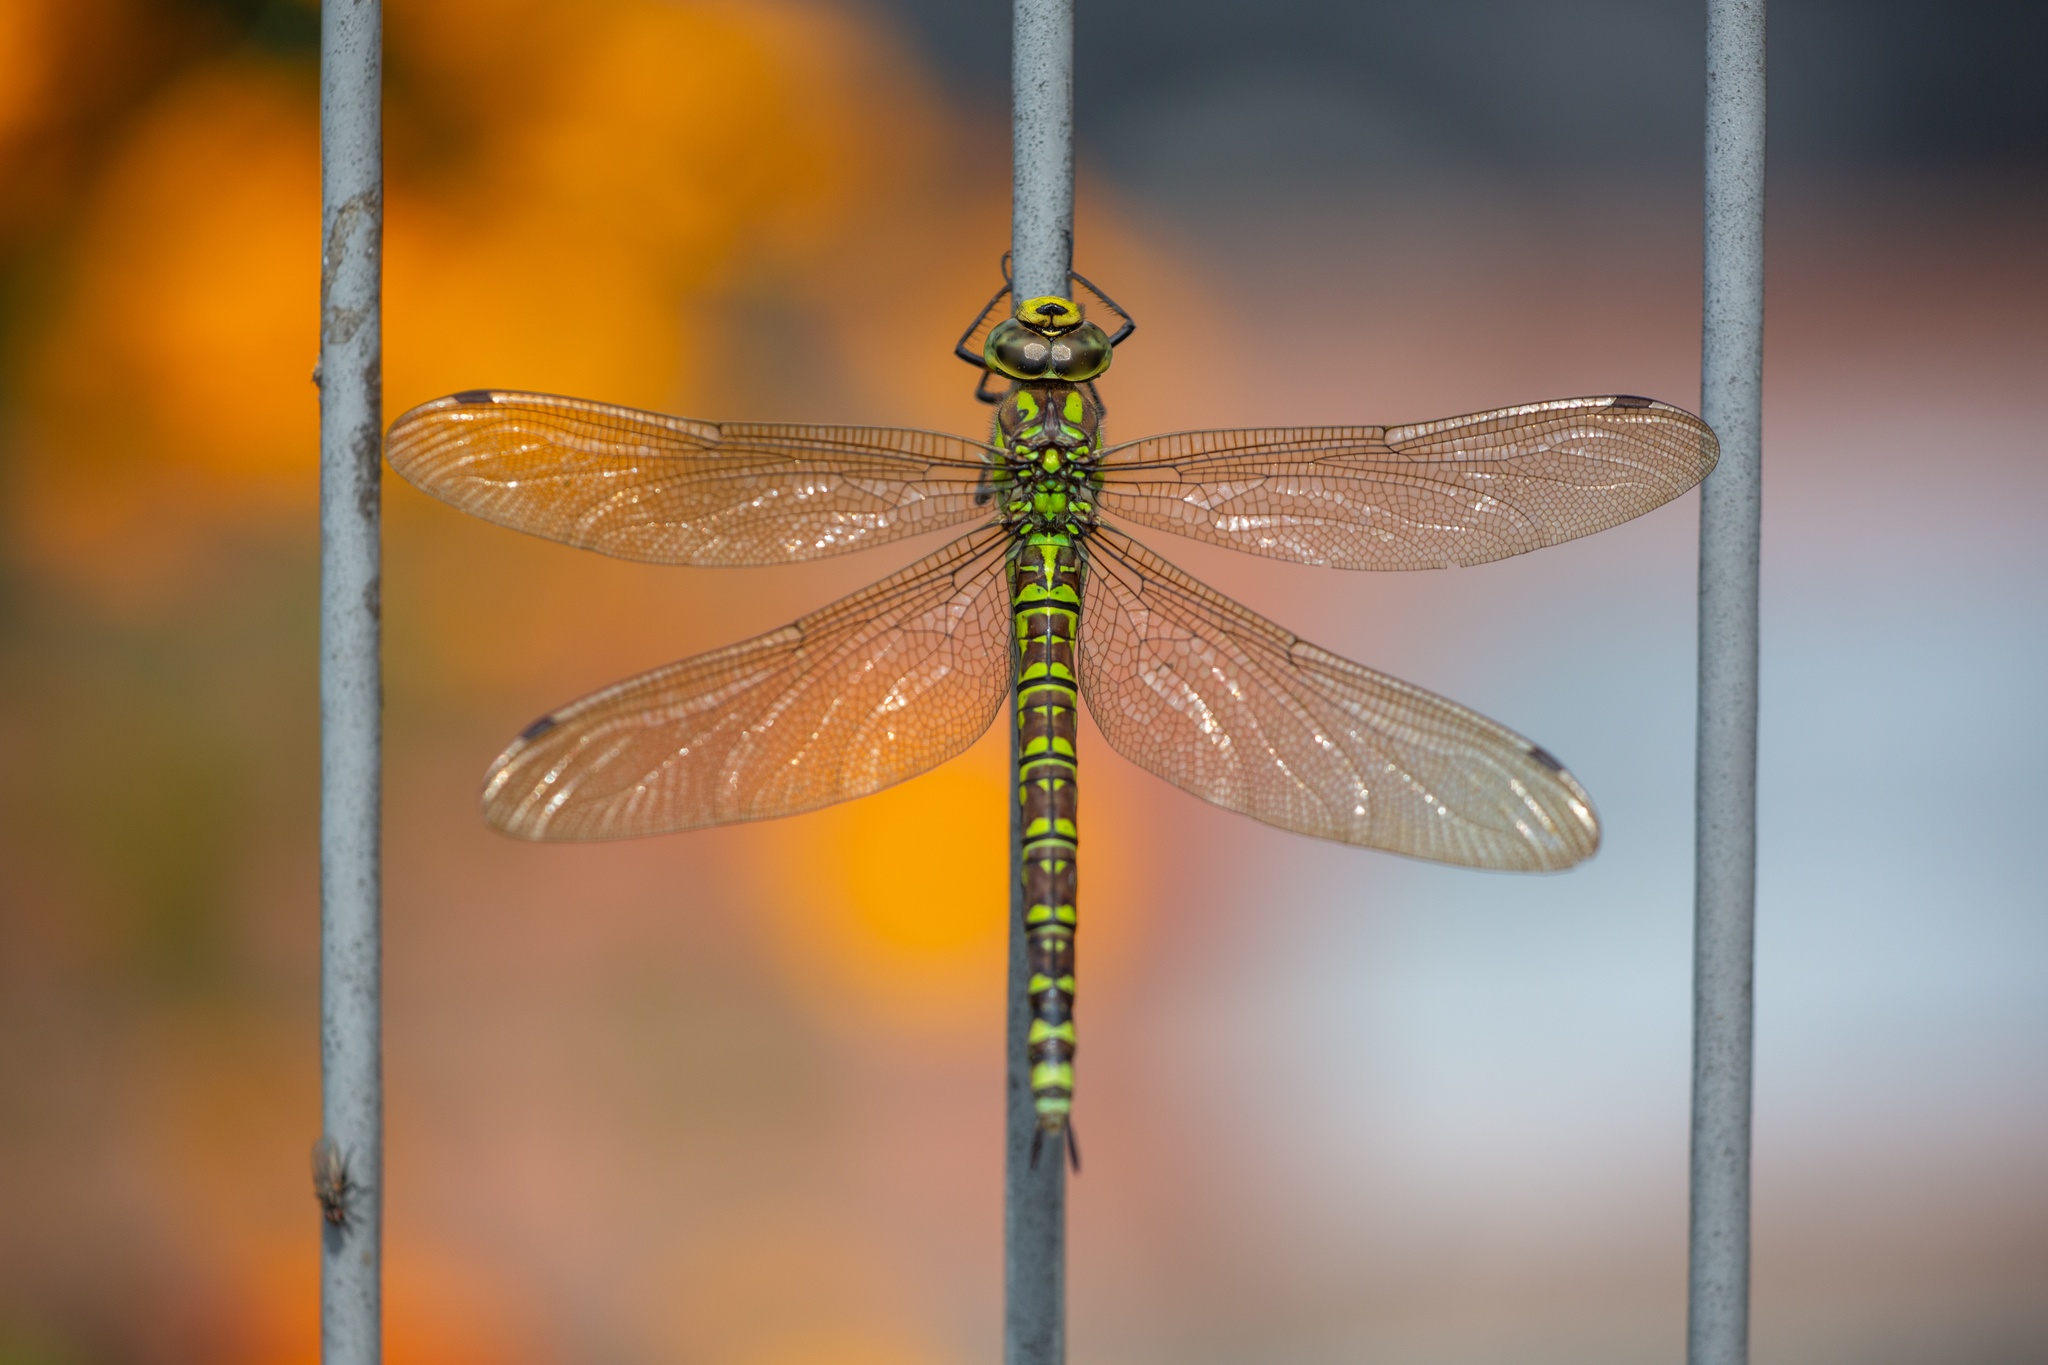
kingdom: Animalia
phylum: Arthropoda
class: Insecta
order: Odonata
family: Aeshnidae
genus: Aeshna
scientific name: Aeshna cyanea
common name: Southern hawker
